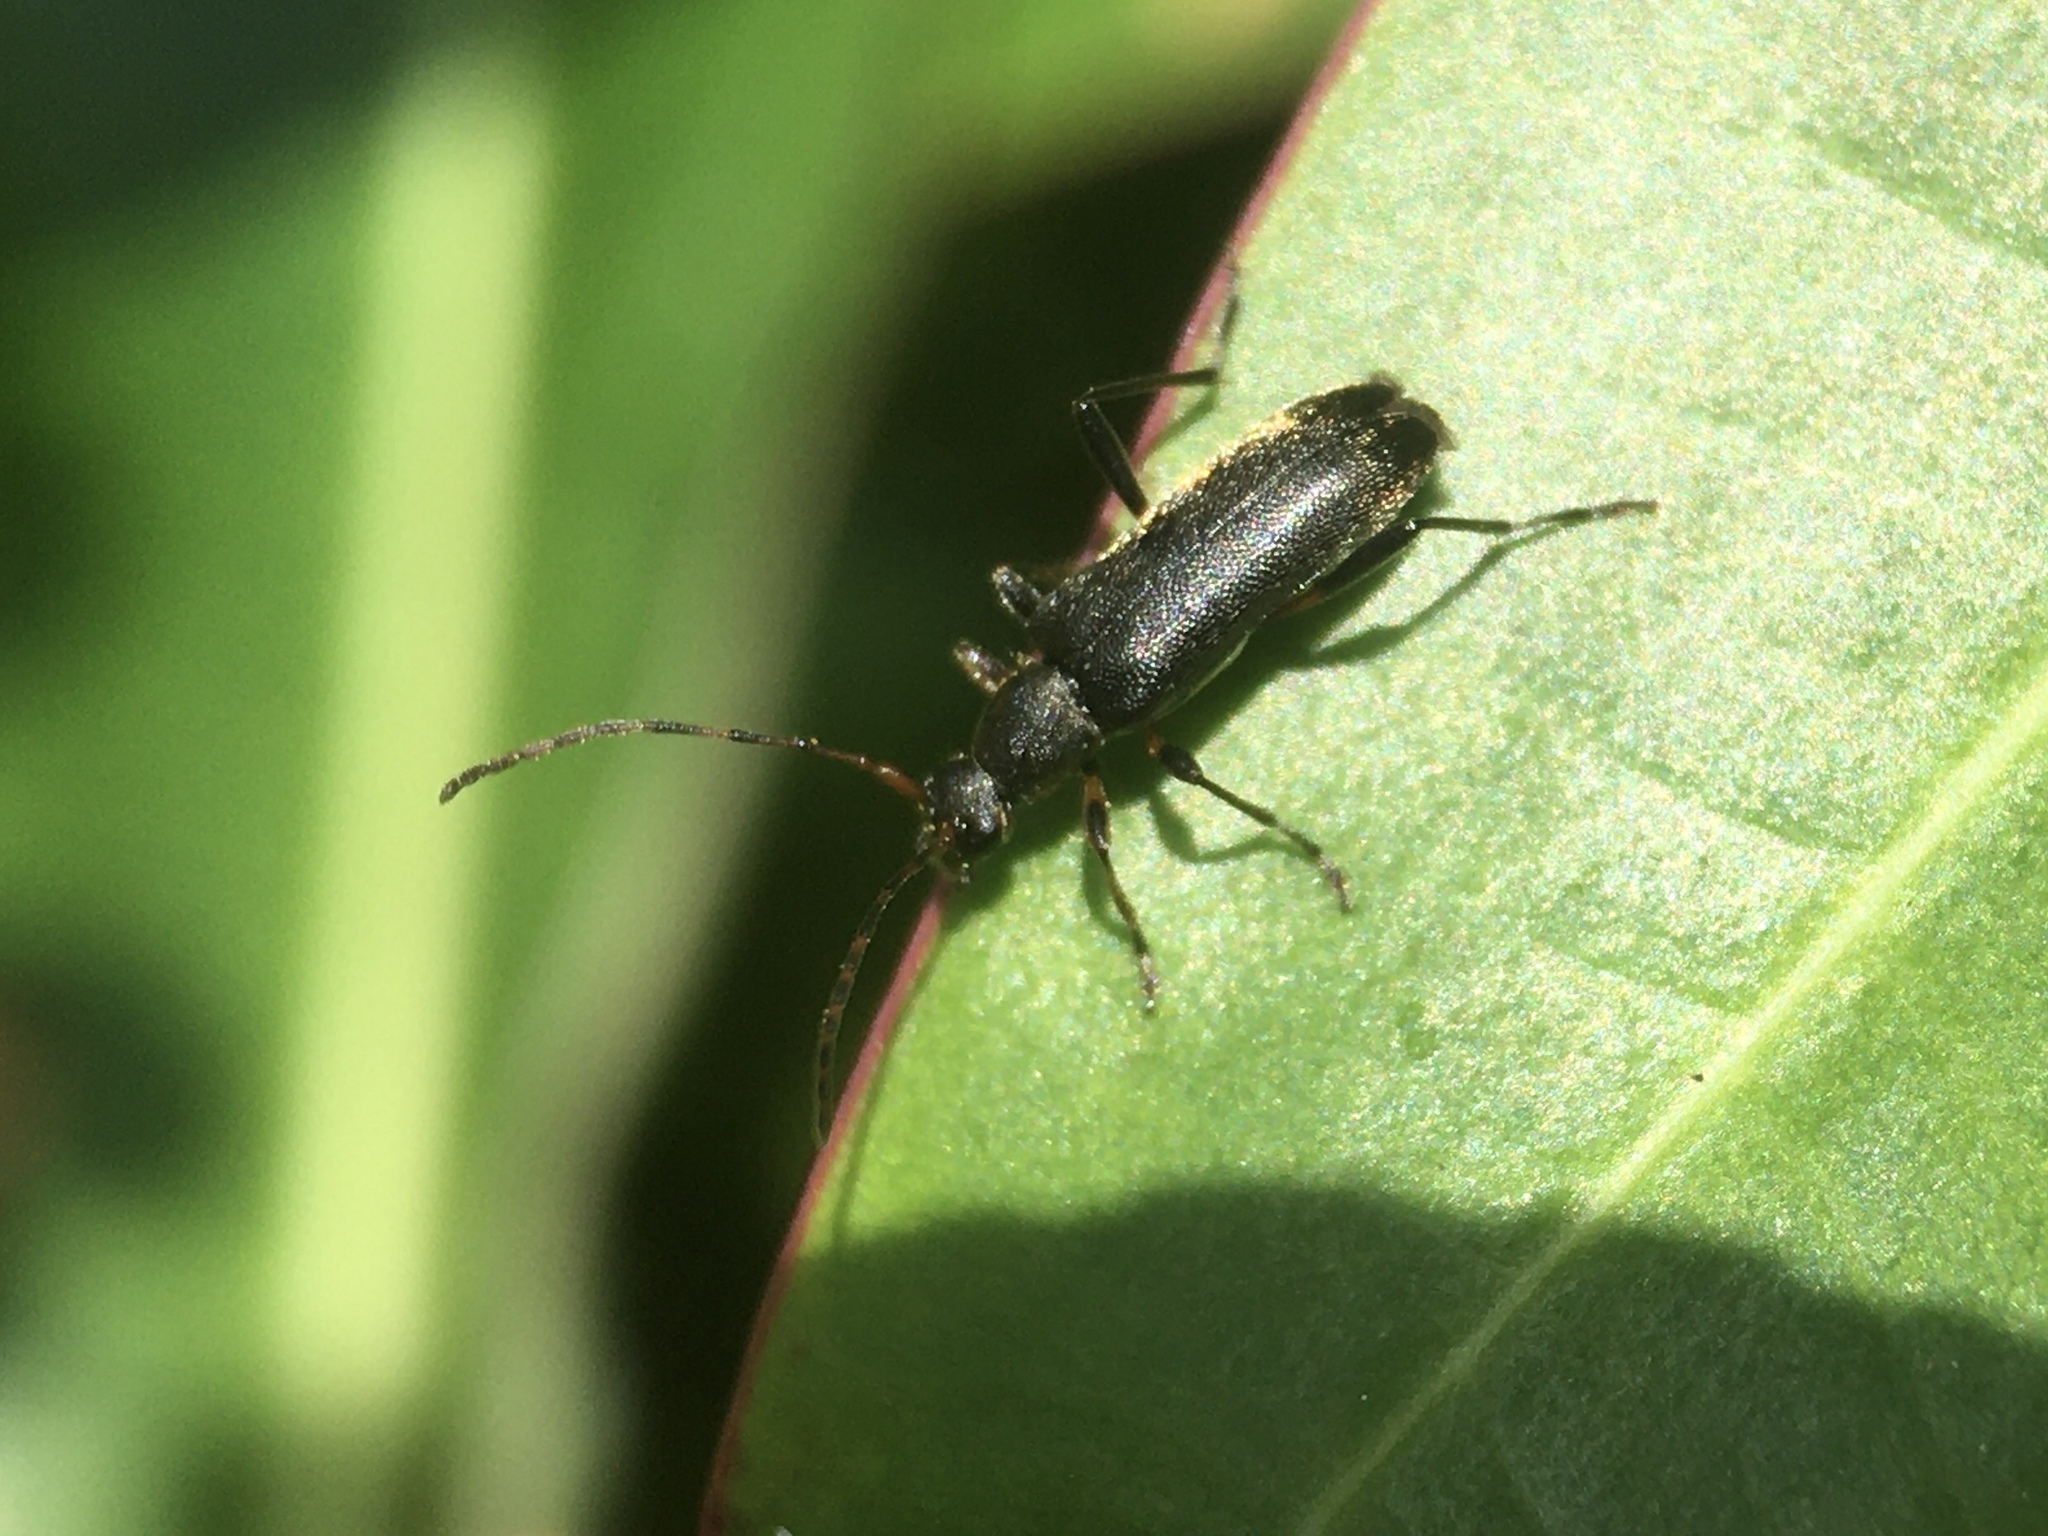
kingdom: Animalia
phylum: Arthropoda
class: Insecta
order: Coleoptera
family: Cerambycidae
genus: Grammoptera
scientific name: Grammoptera ruficornis
